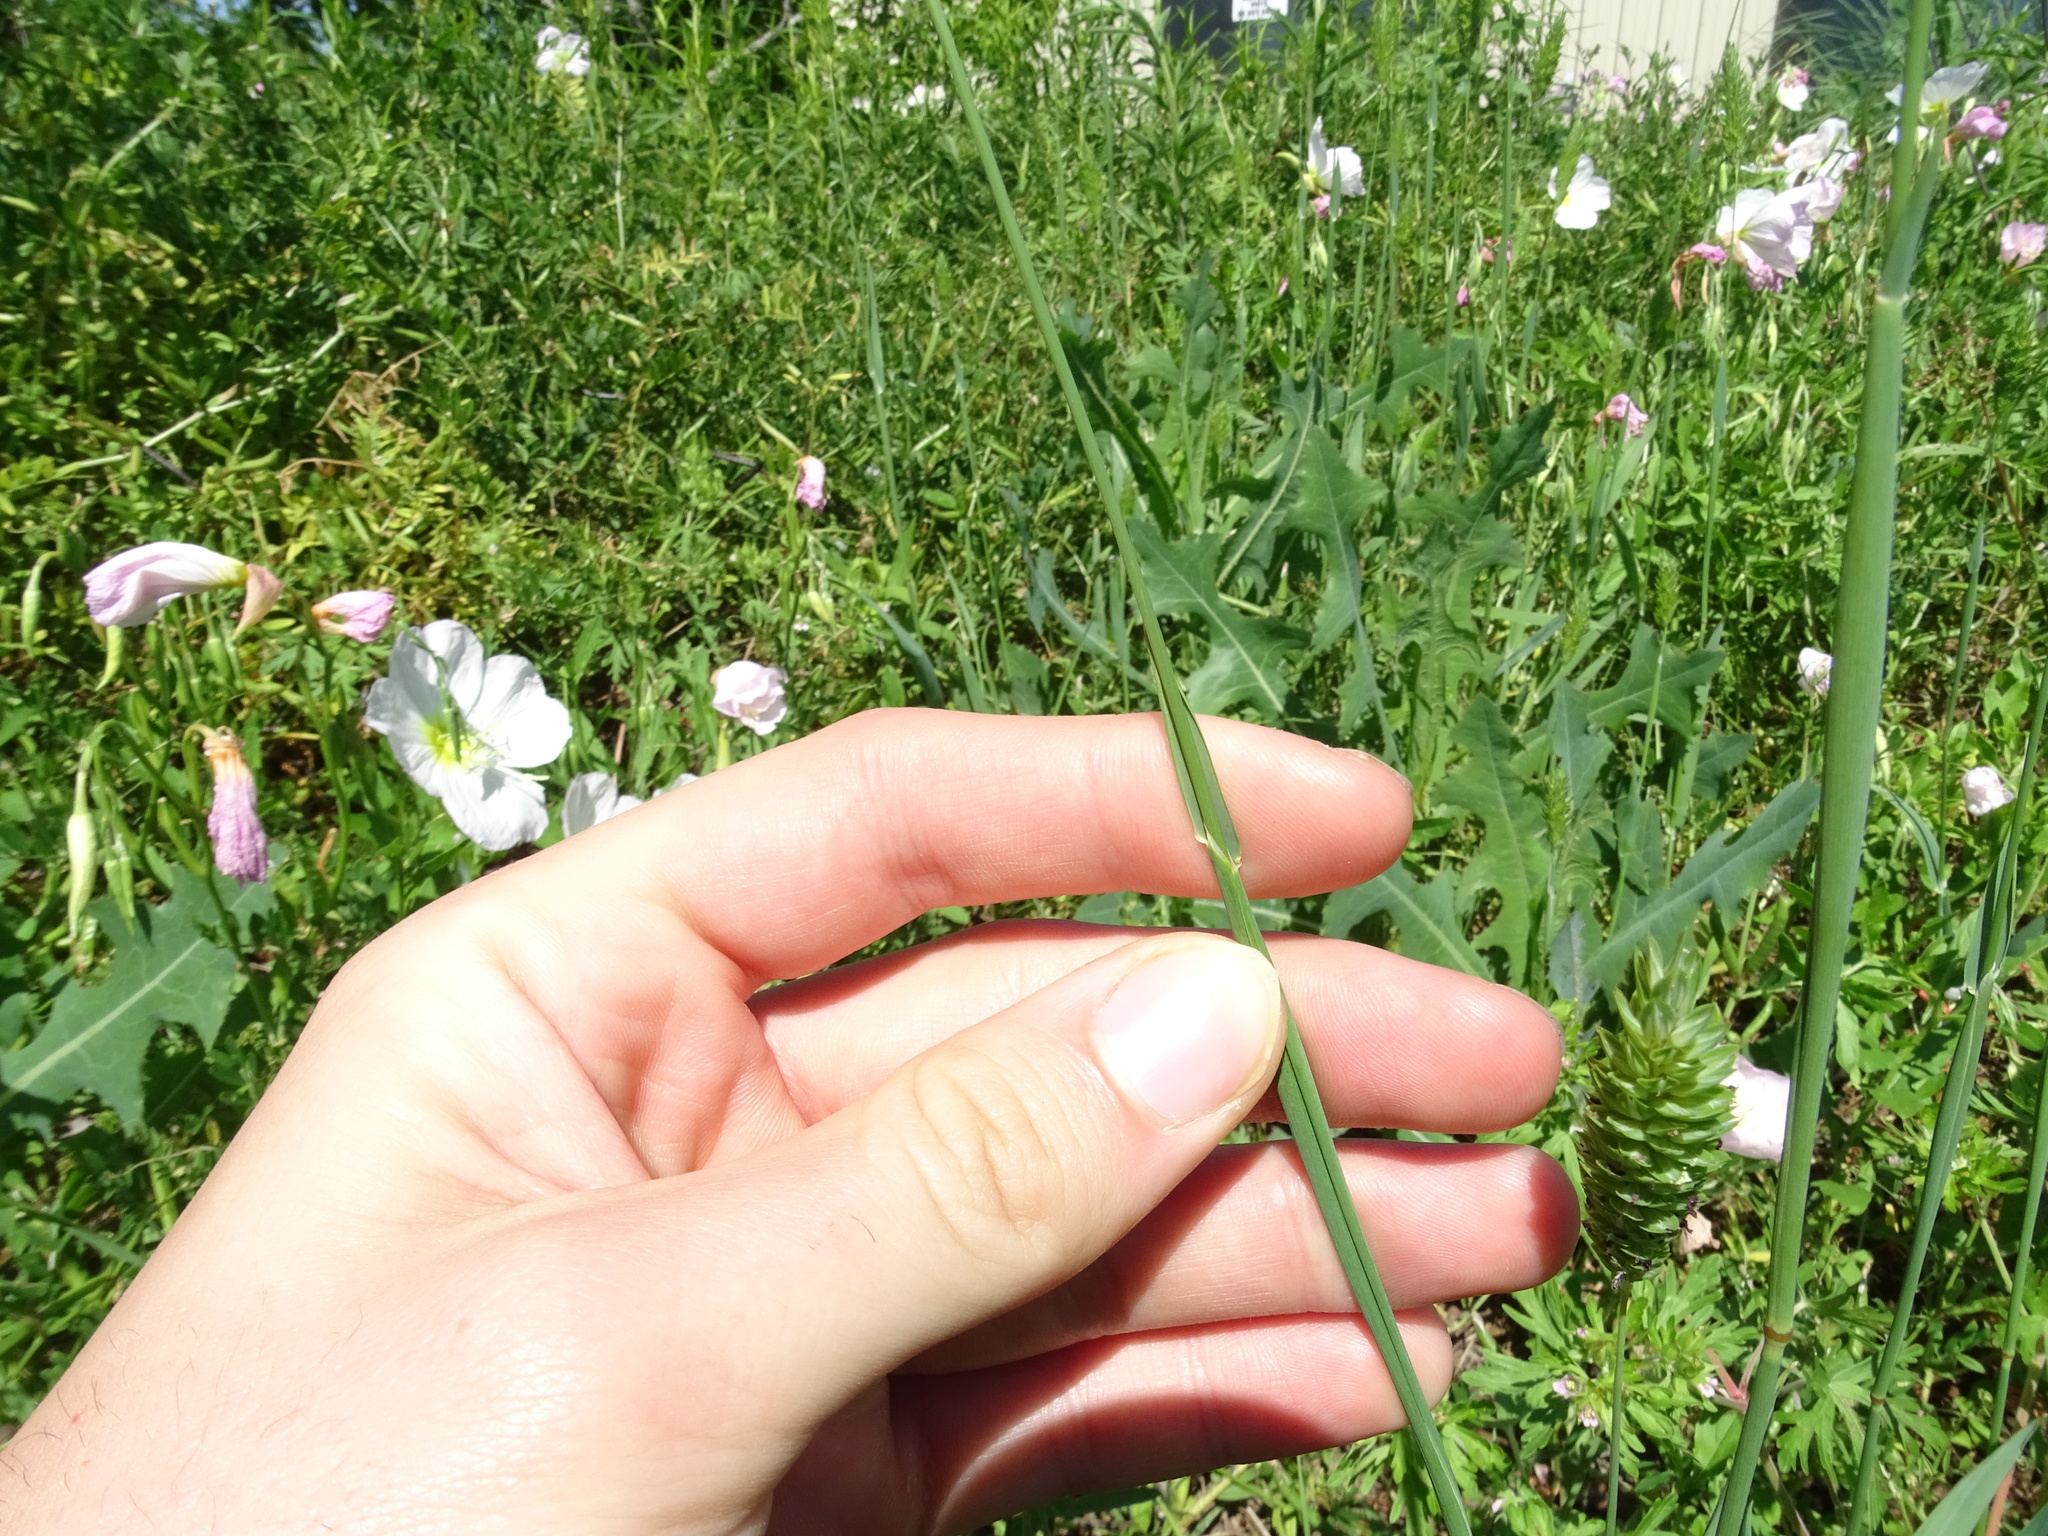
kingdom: Plantae
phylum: Tracheophyta
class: Liliopsida
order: Poales
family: Poaceae
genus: Phalaris
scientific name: Phalaris caroliniana
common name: May grass
